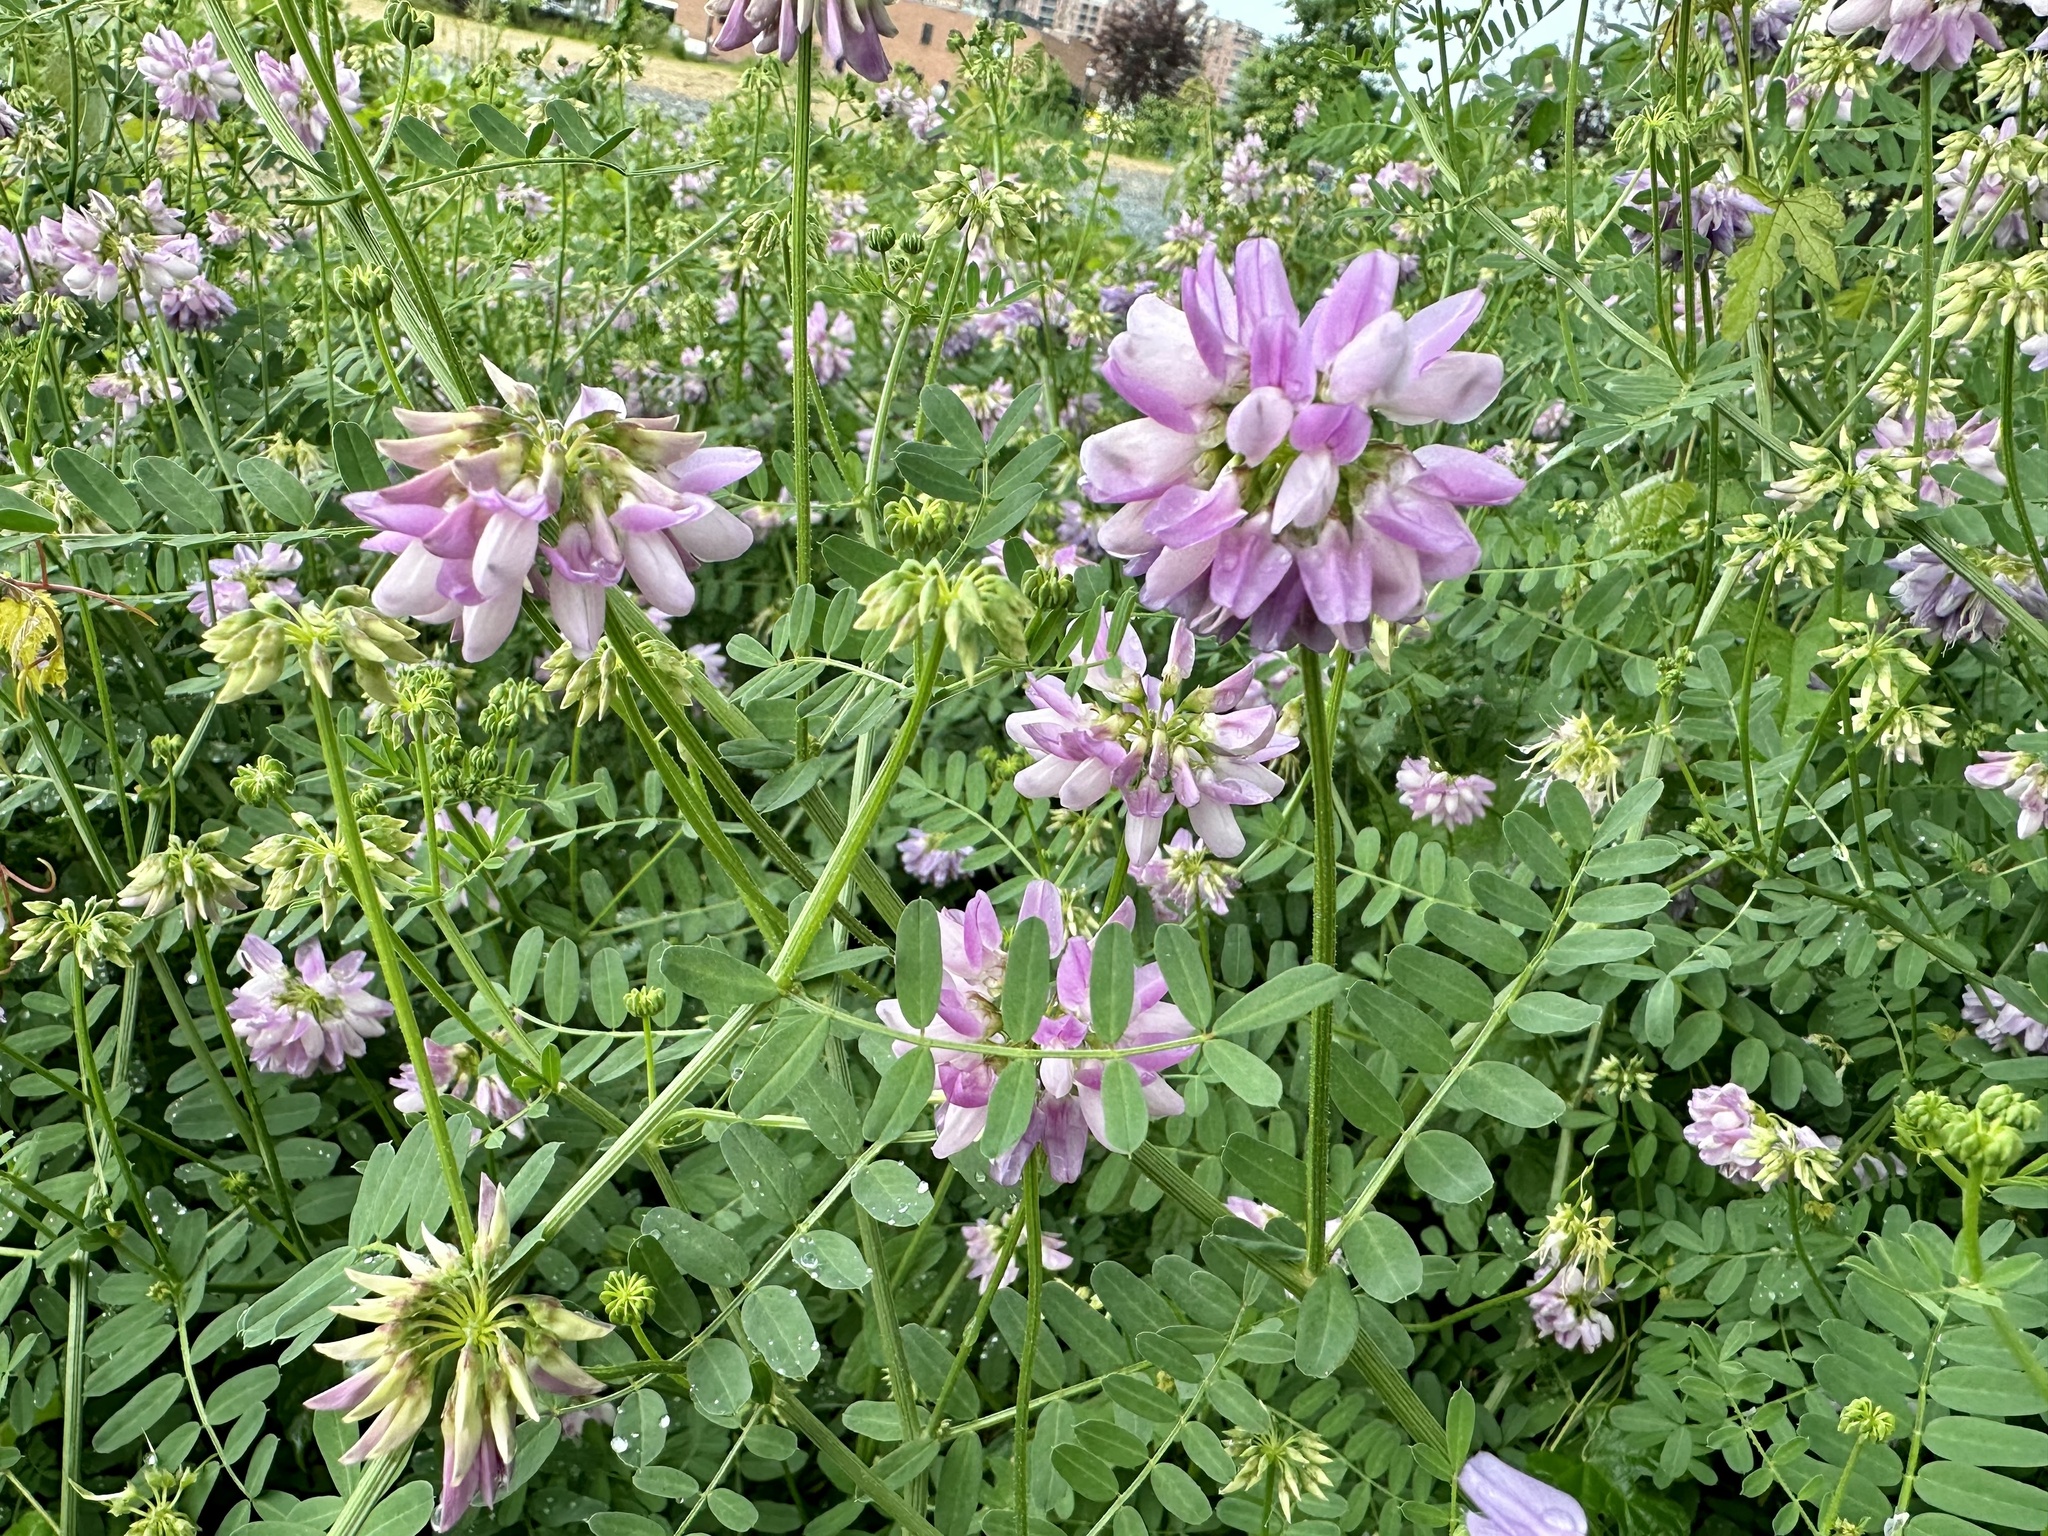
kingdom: Plantae
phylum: Tracheophyta
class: Magnoliopsida
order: Fabales
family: Fabaceae
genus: Coronilla
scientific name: Coronilla varia
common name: Crownvetch
